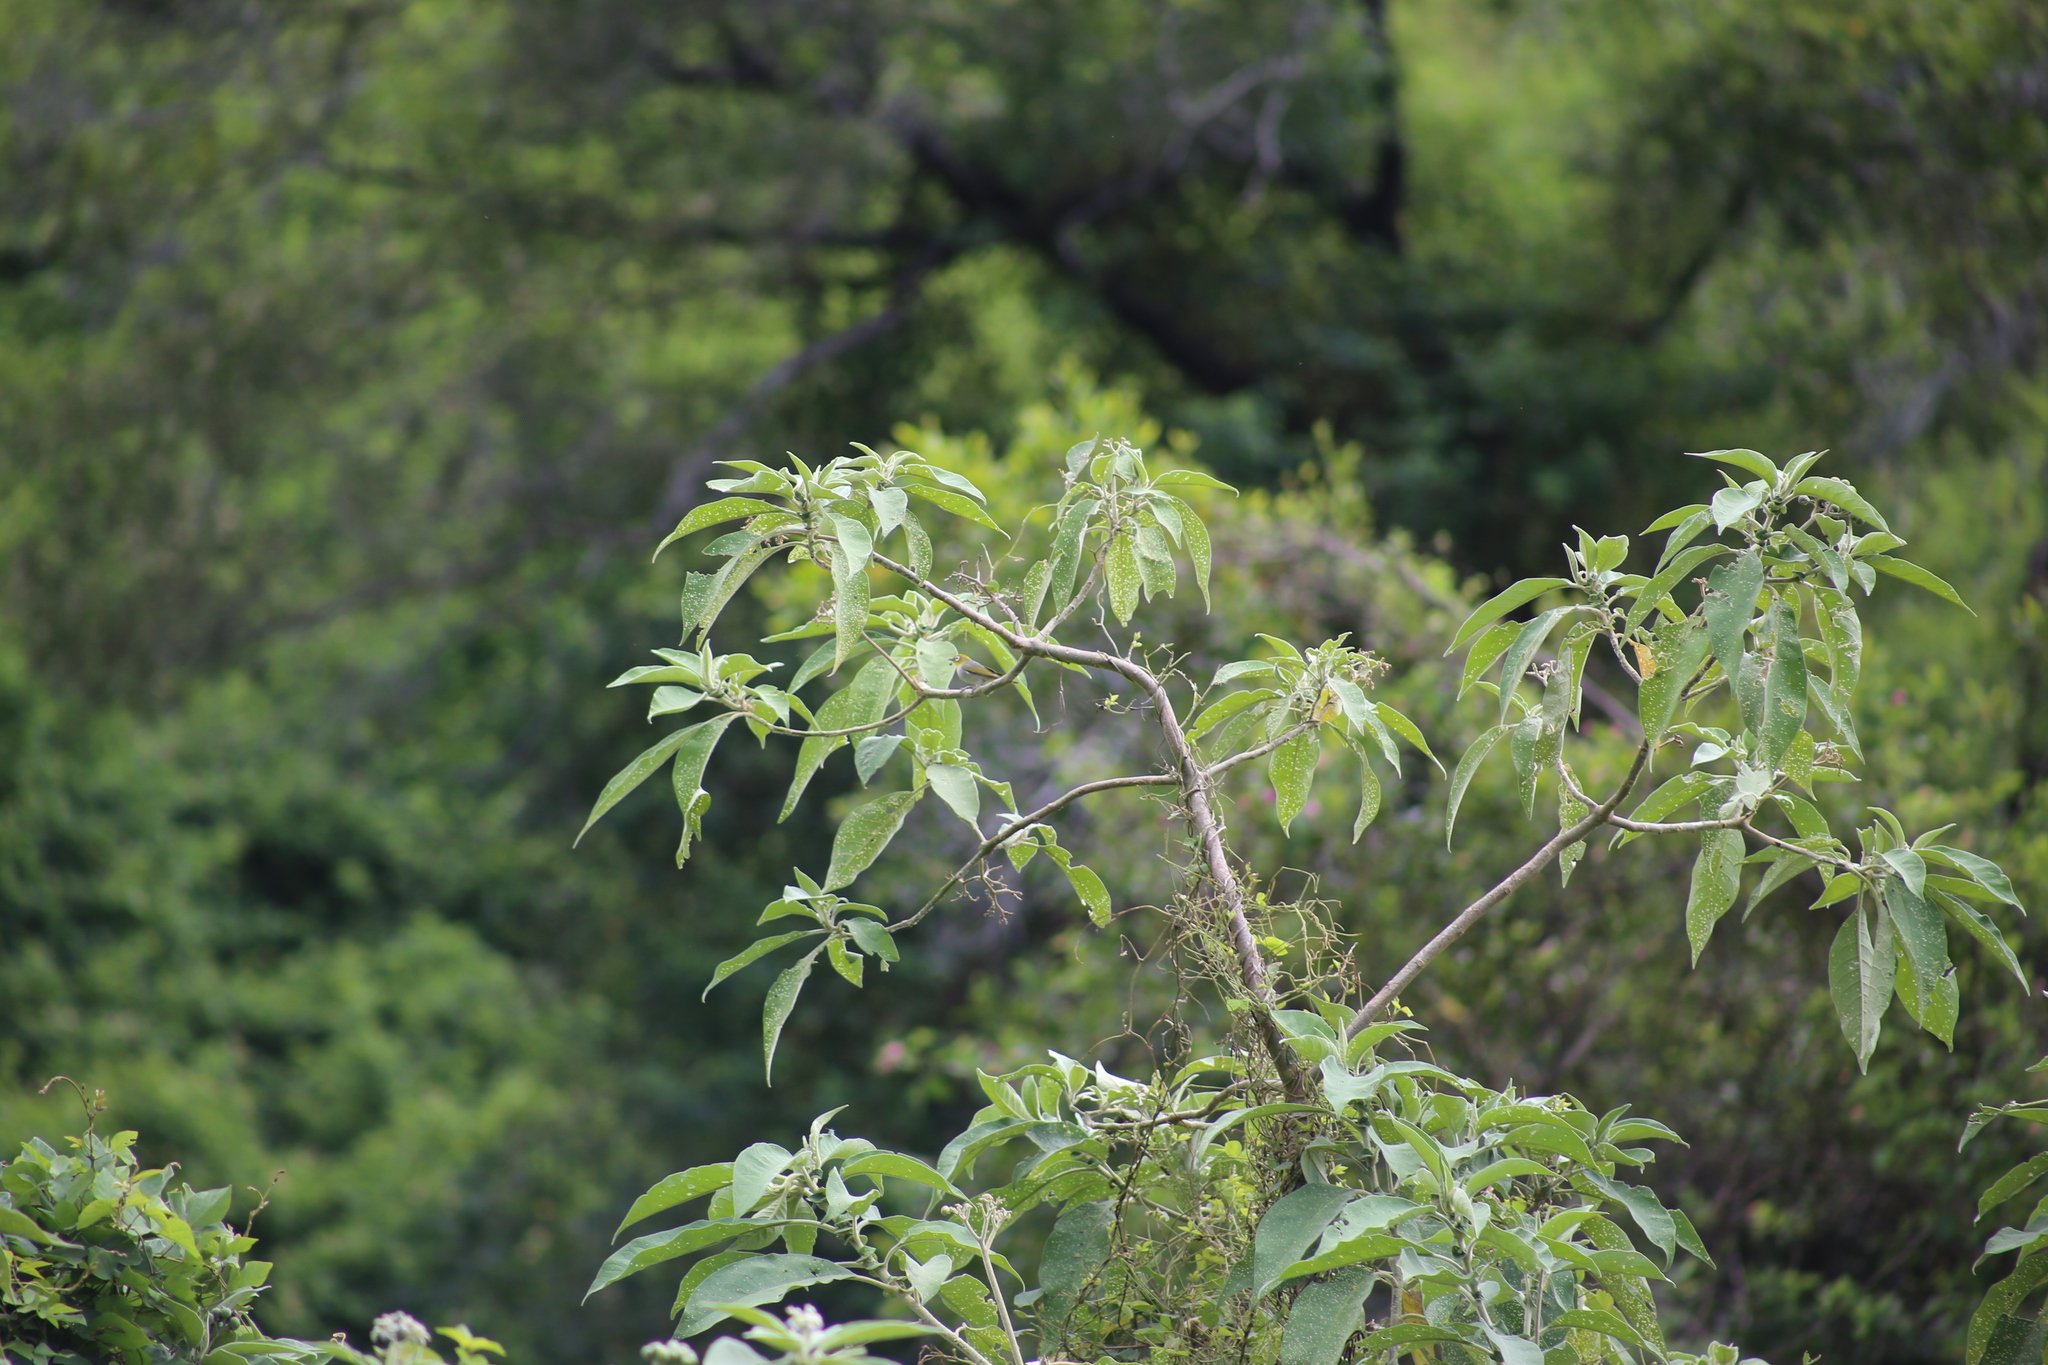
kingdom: Animalia
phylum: Chordata
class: Aves
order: Passeriformes
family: Zosteropidae
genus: Zosterops
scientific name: Zosterops lateralis
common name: Silvereye
